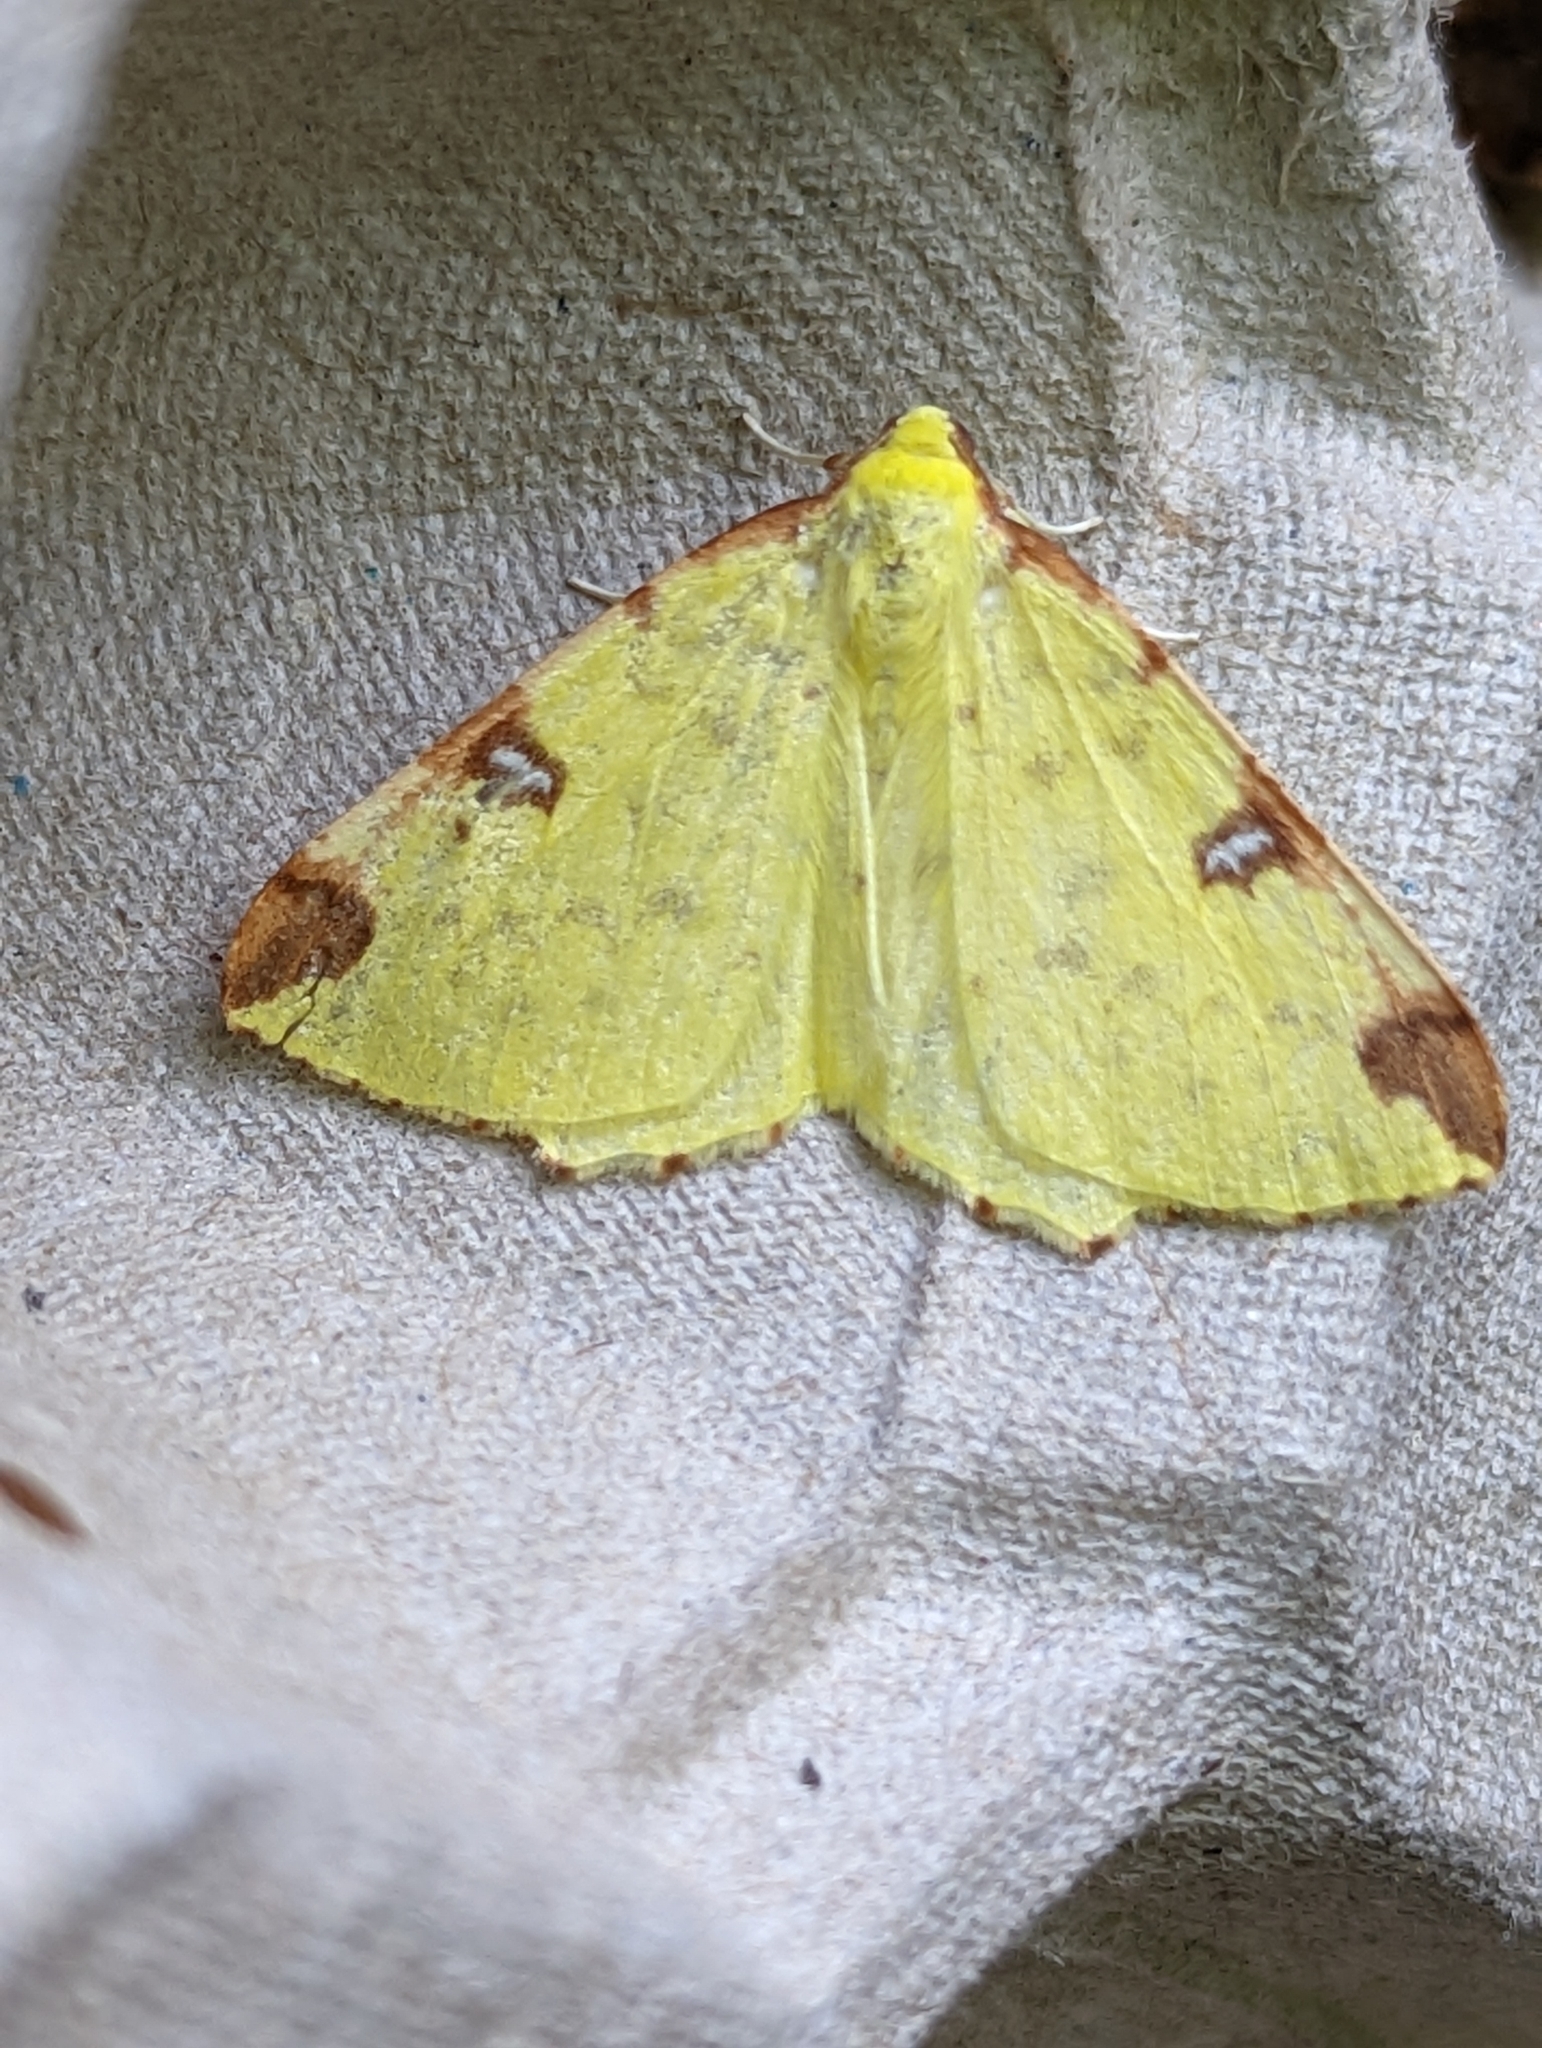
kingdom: Animalia
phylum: Arthropoda
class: Insecta
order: Lepidoptera
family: Geometridae
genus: Opisthograptis
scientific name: Opisthograptis luteolata
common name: Brimstone moth
